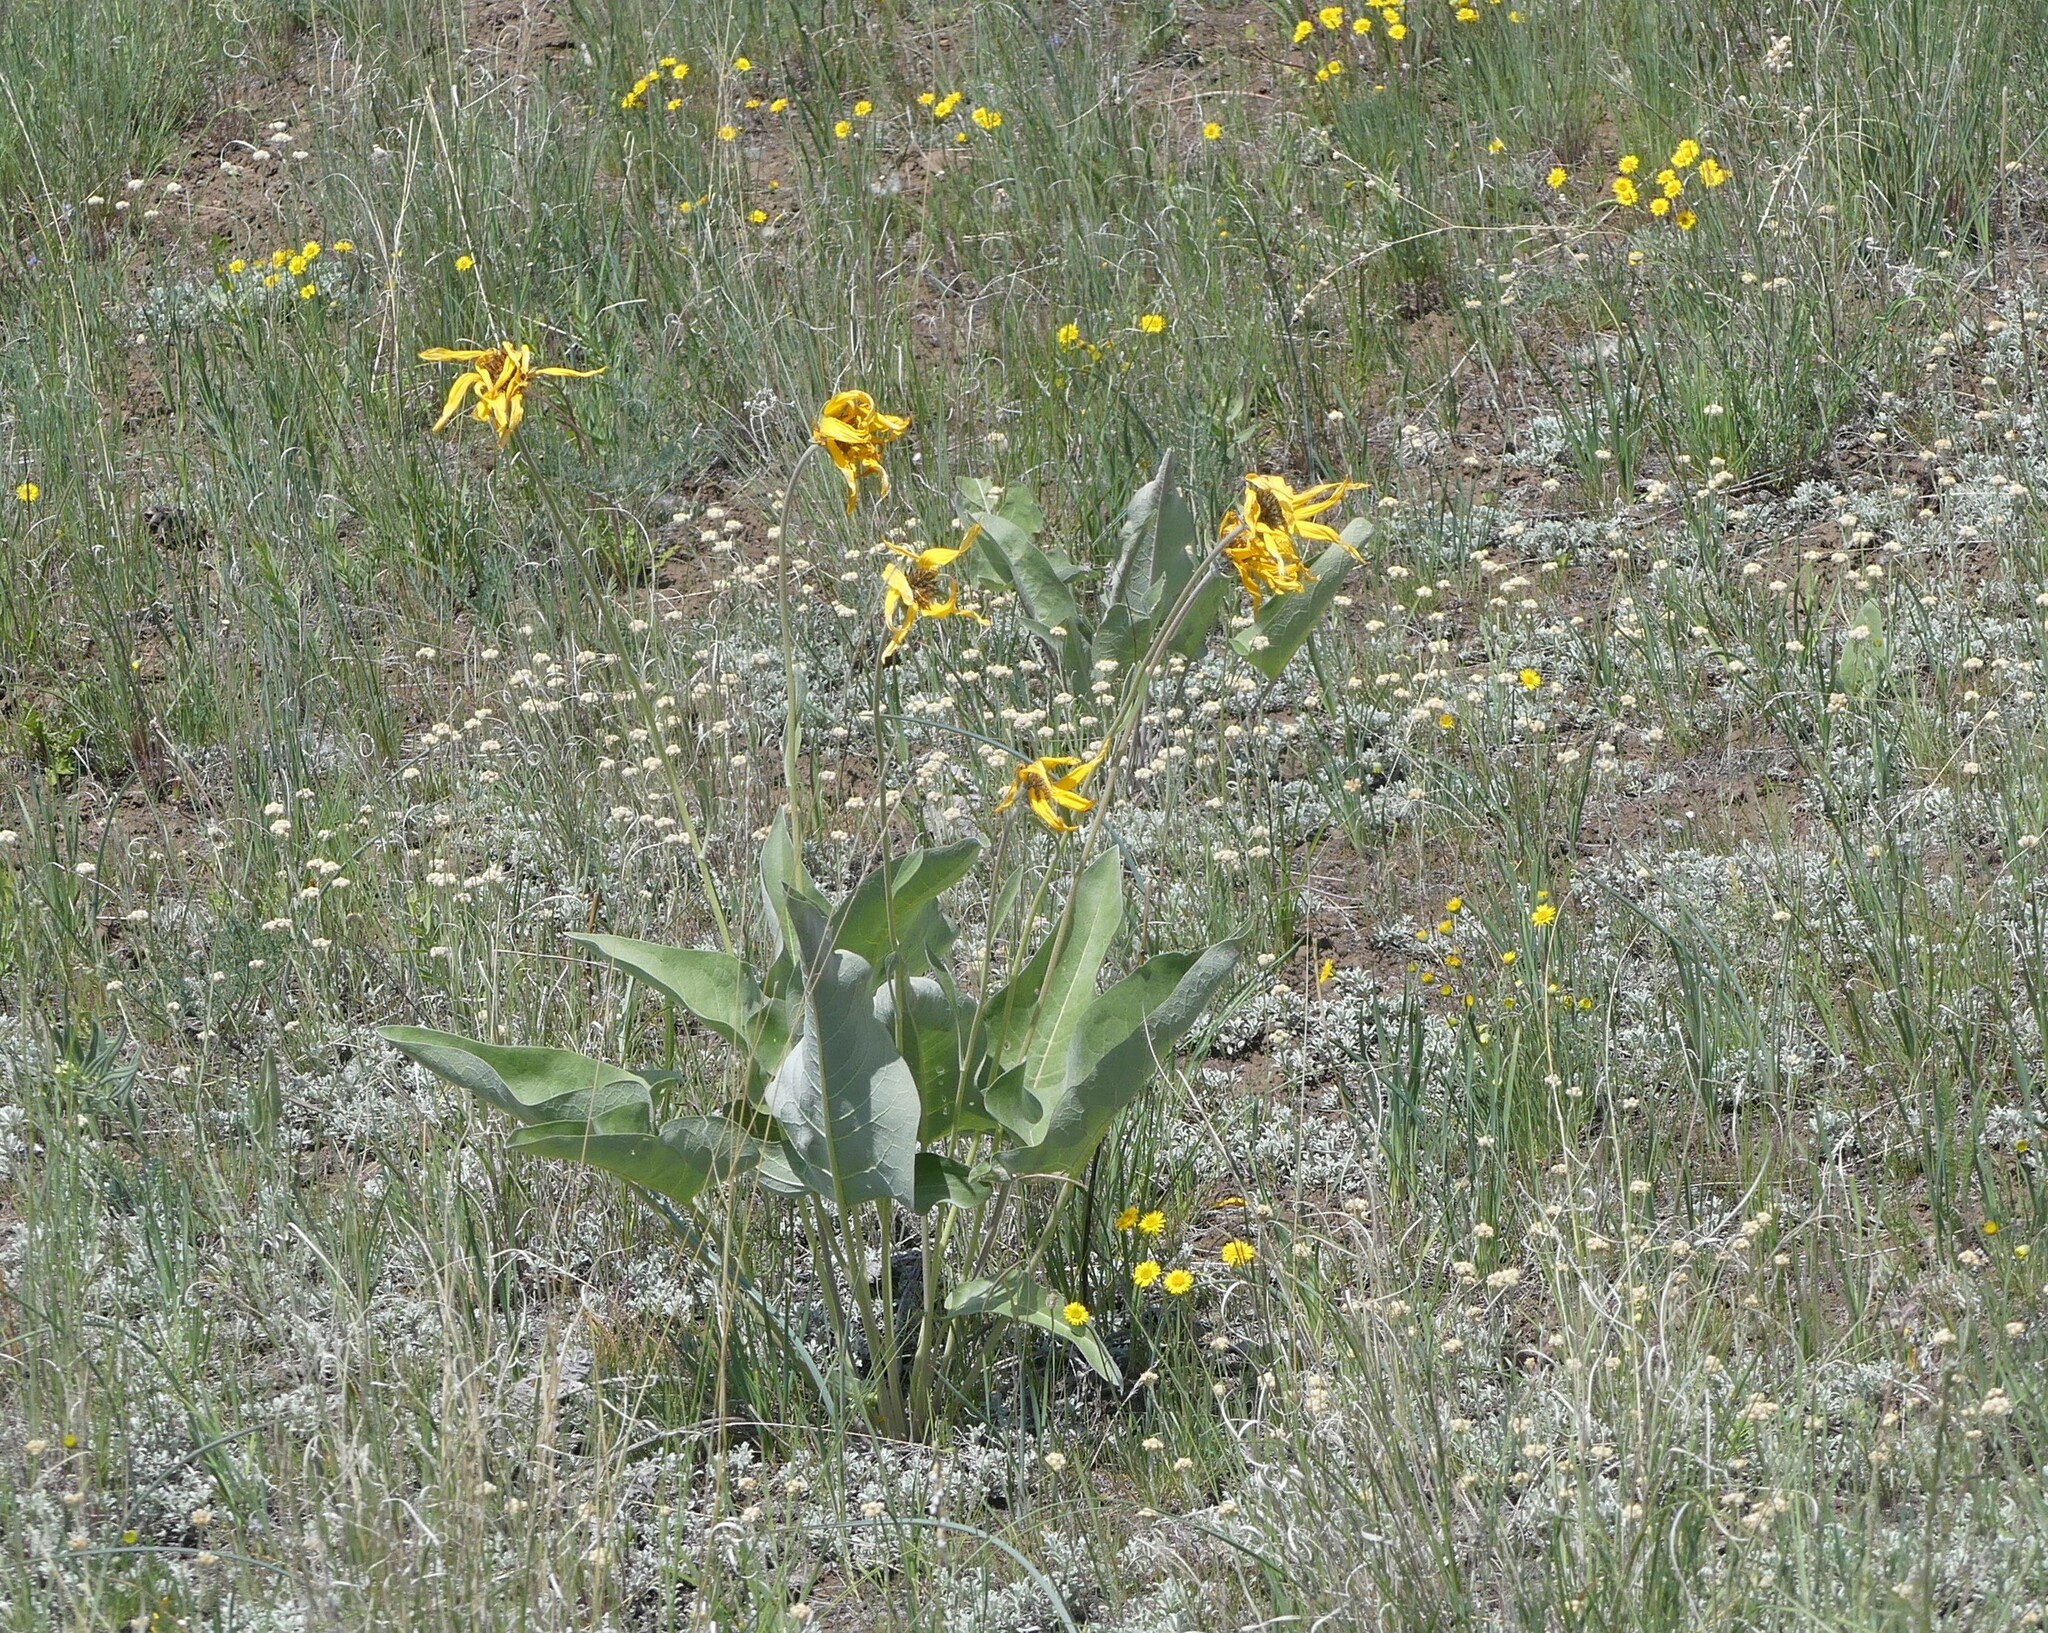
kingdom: Plantae
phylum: Tracheophyta
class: Magnoliopsida
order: Asterales
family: Asteraceae
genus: Wyethia
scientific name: Wyethia sagittata
